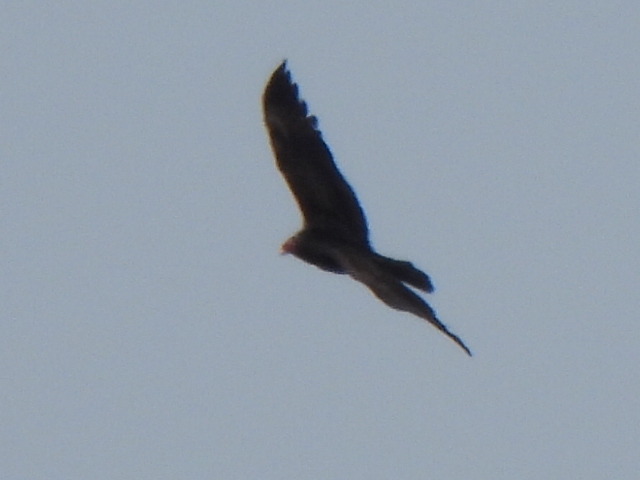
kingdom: Animalia
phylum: Chordata
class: Aves
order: Accipitriformes
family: Cathartidae
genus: Cathartes
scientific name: Cathartes aura
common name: Turkey vulture
